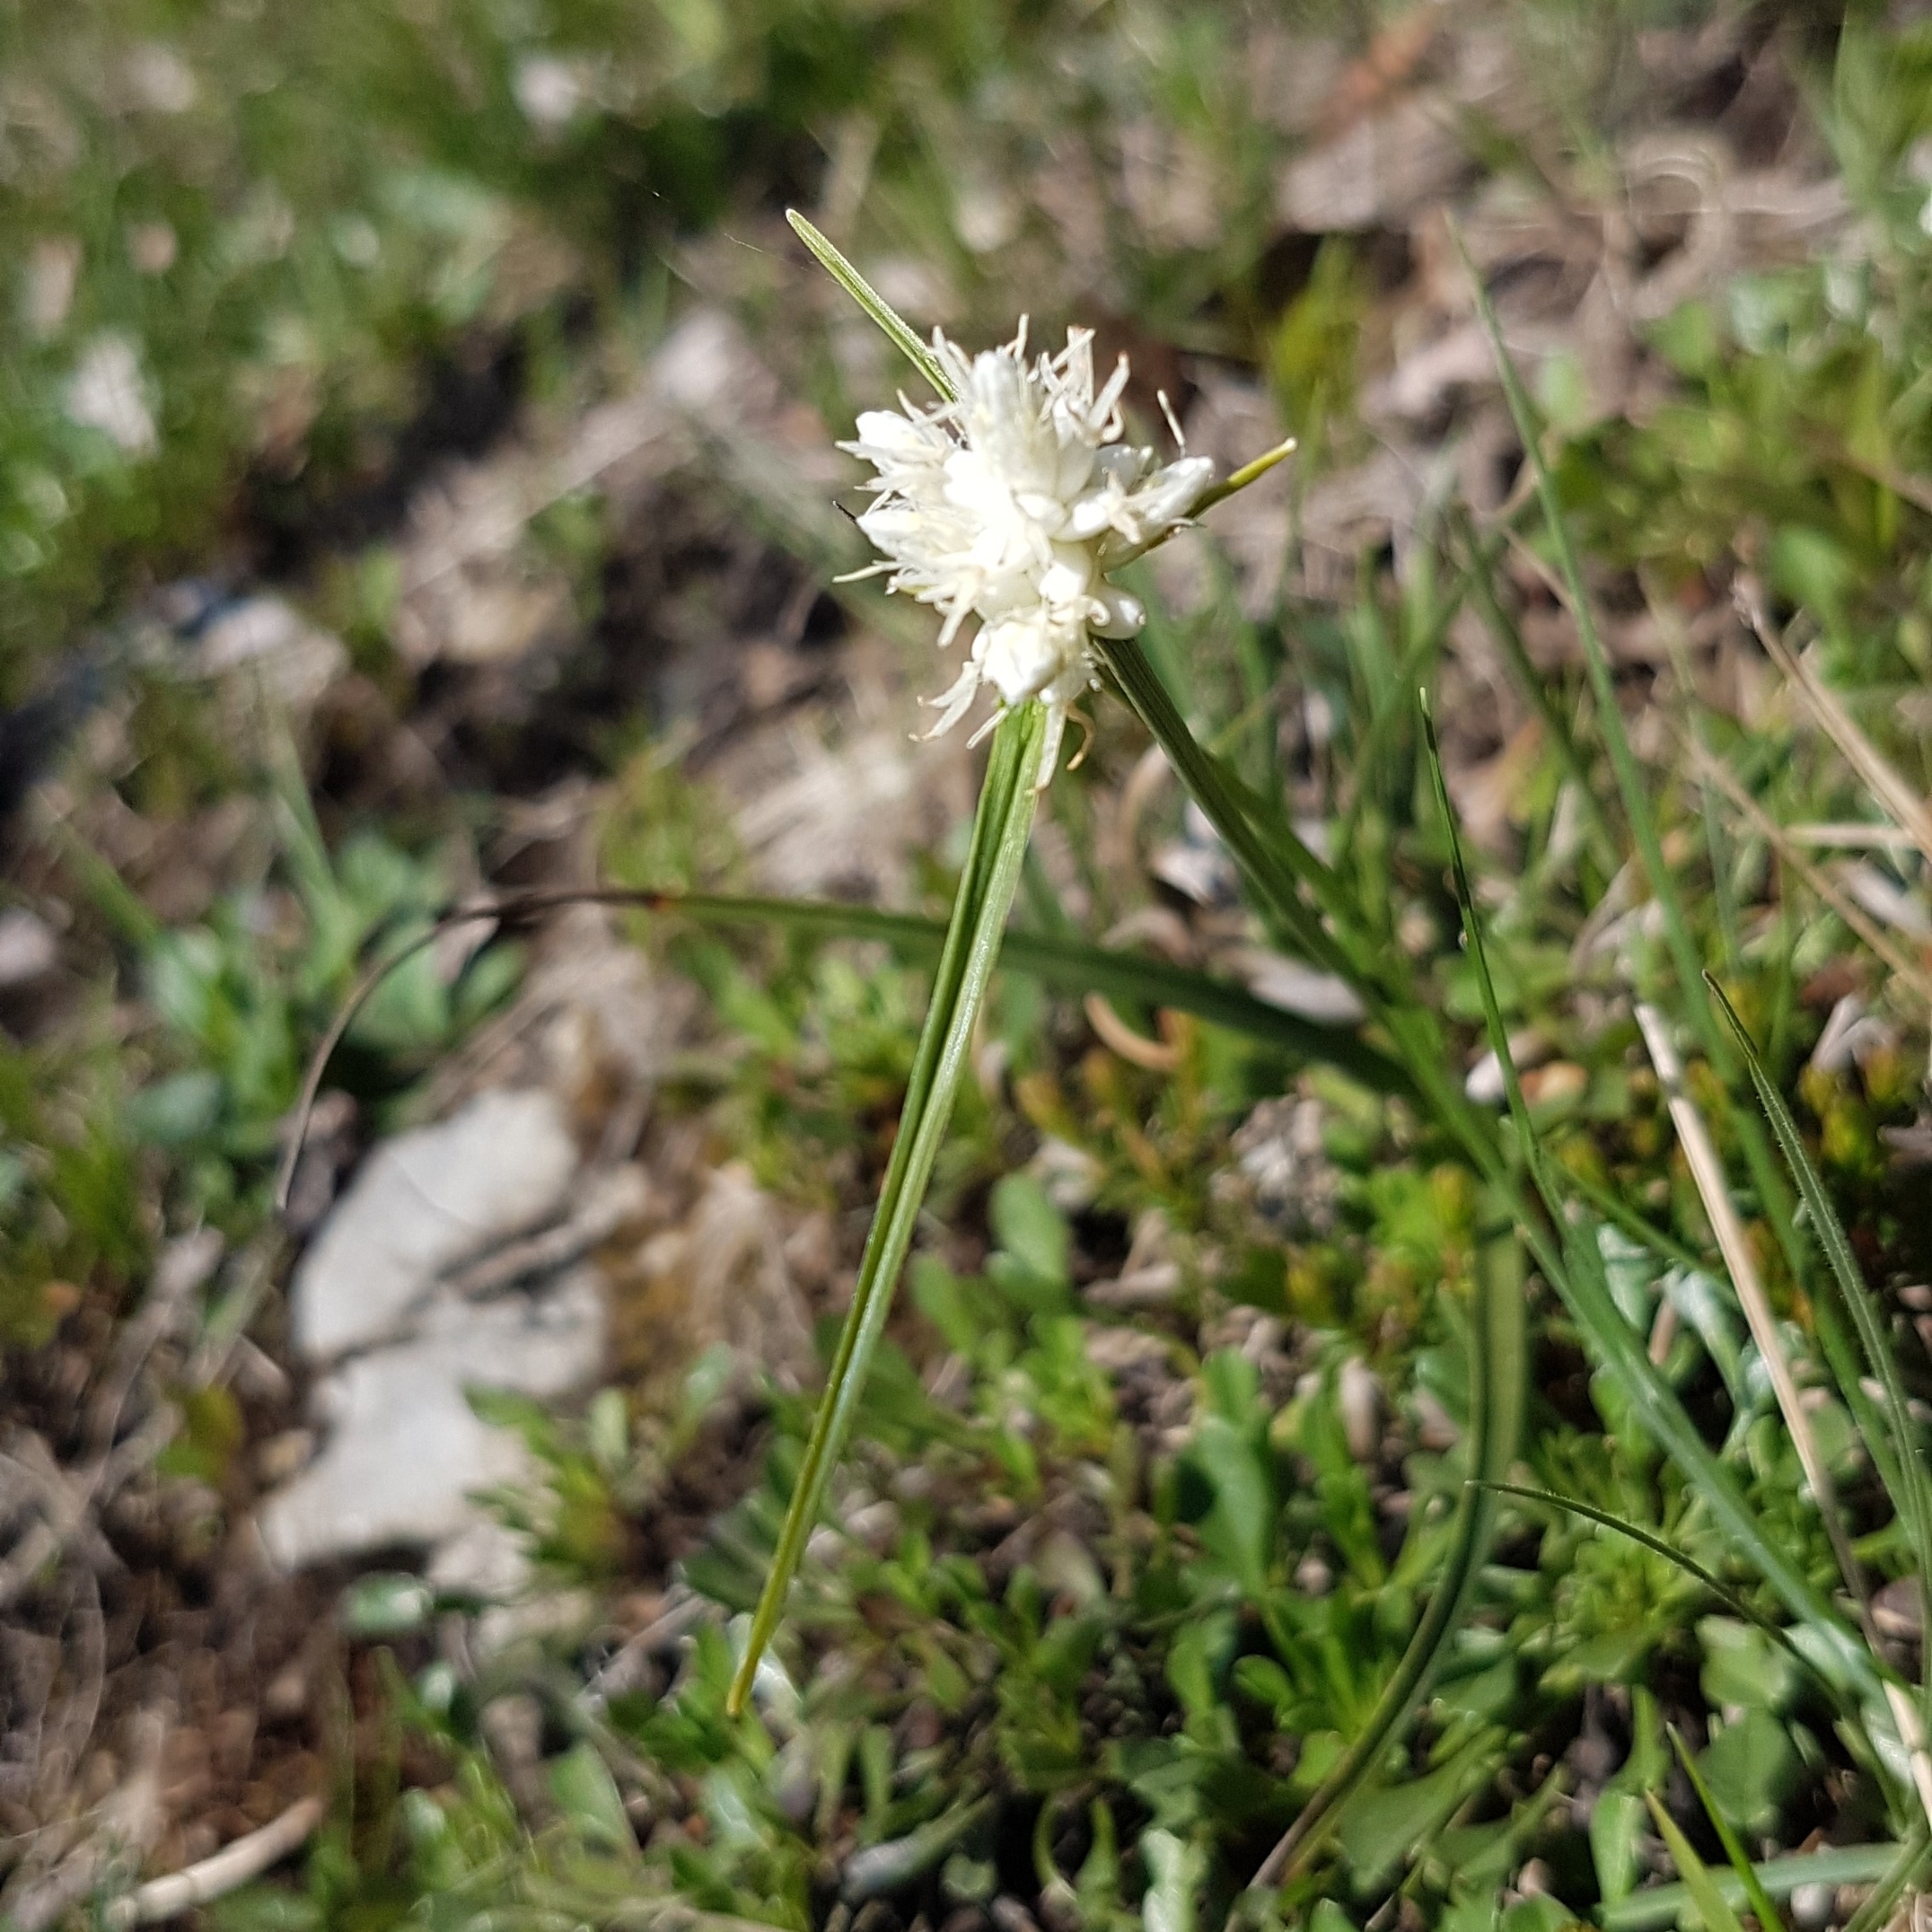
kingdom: Plantae
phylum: Tracheophyta
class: Liliopsida
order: Poales
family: Cyperaceae
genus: Carex
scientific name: Carex baldensis
